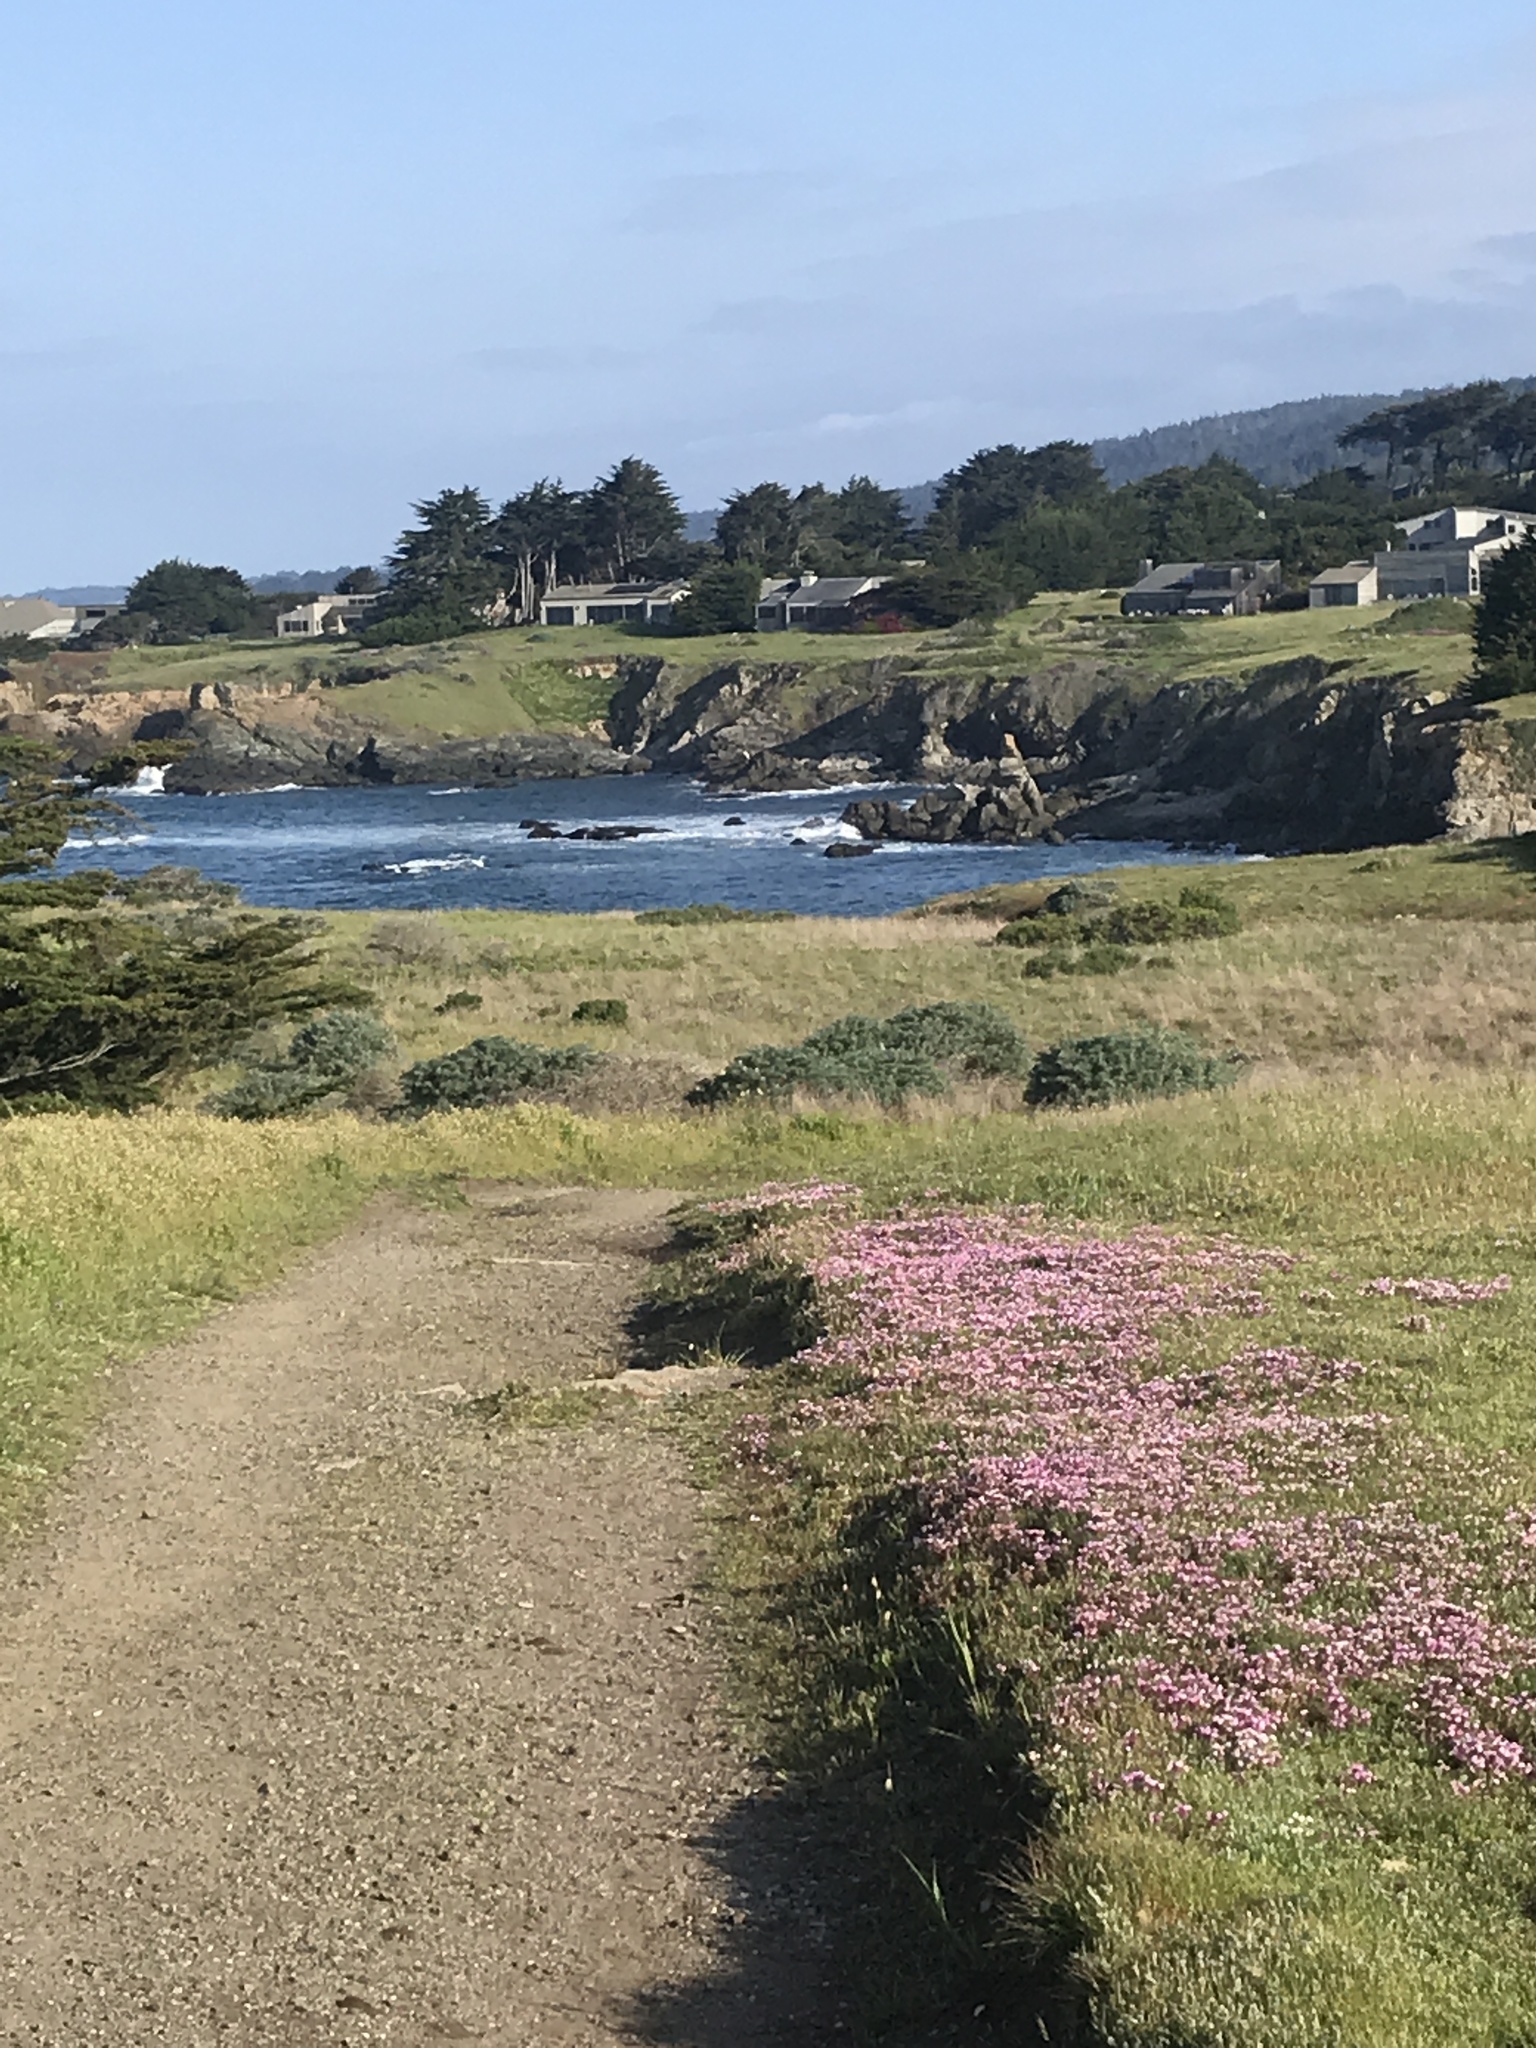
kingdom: Plantae
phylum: Tracheophyta
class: Magnoliopsida
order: Lamiales
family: Orobanchaceae
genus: Triphysaria
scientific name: Triphysaria eriantha
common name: Johnny-tuck
